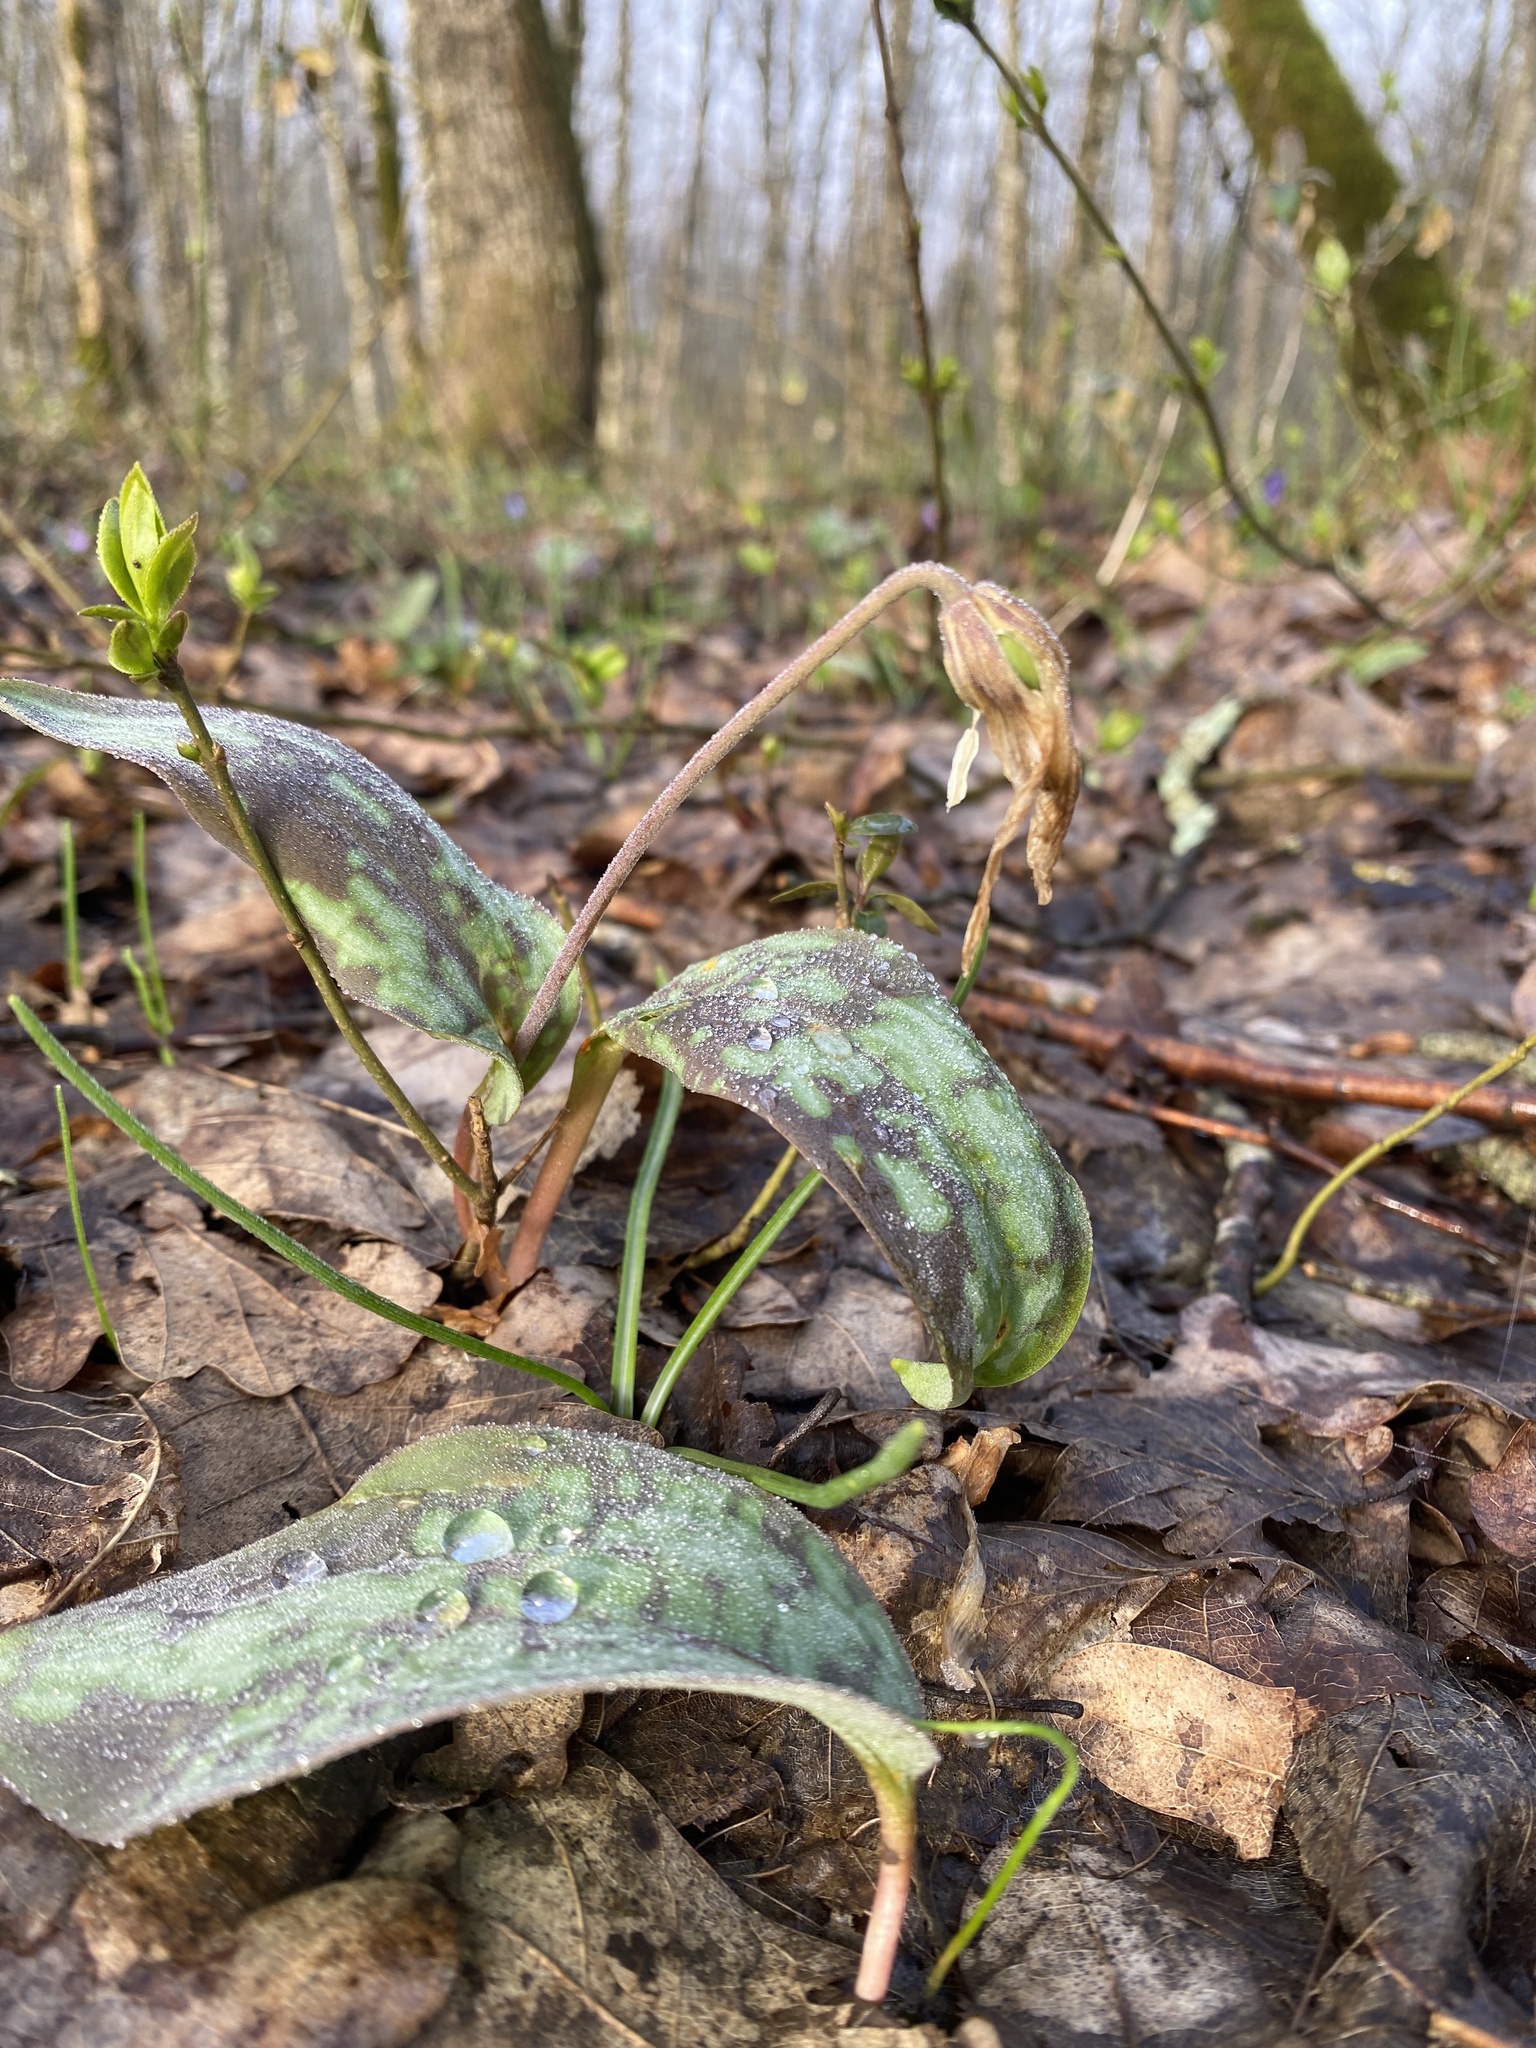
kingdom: Plantae
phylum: Tracheophyta
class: Liliopsida
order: Liliales
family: Liliaceae
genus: Erythronium
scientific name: Erythronium caucasicum
